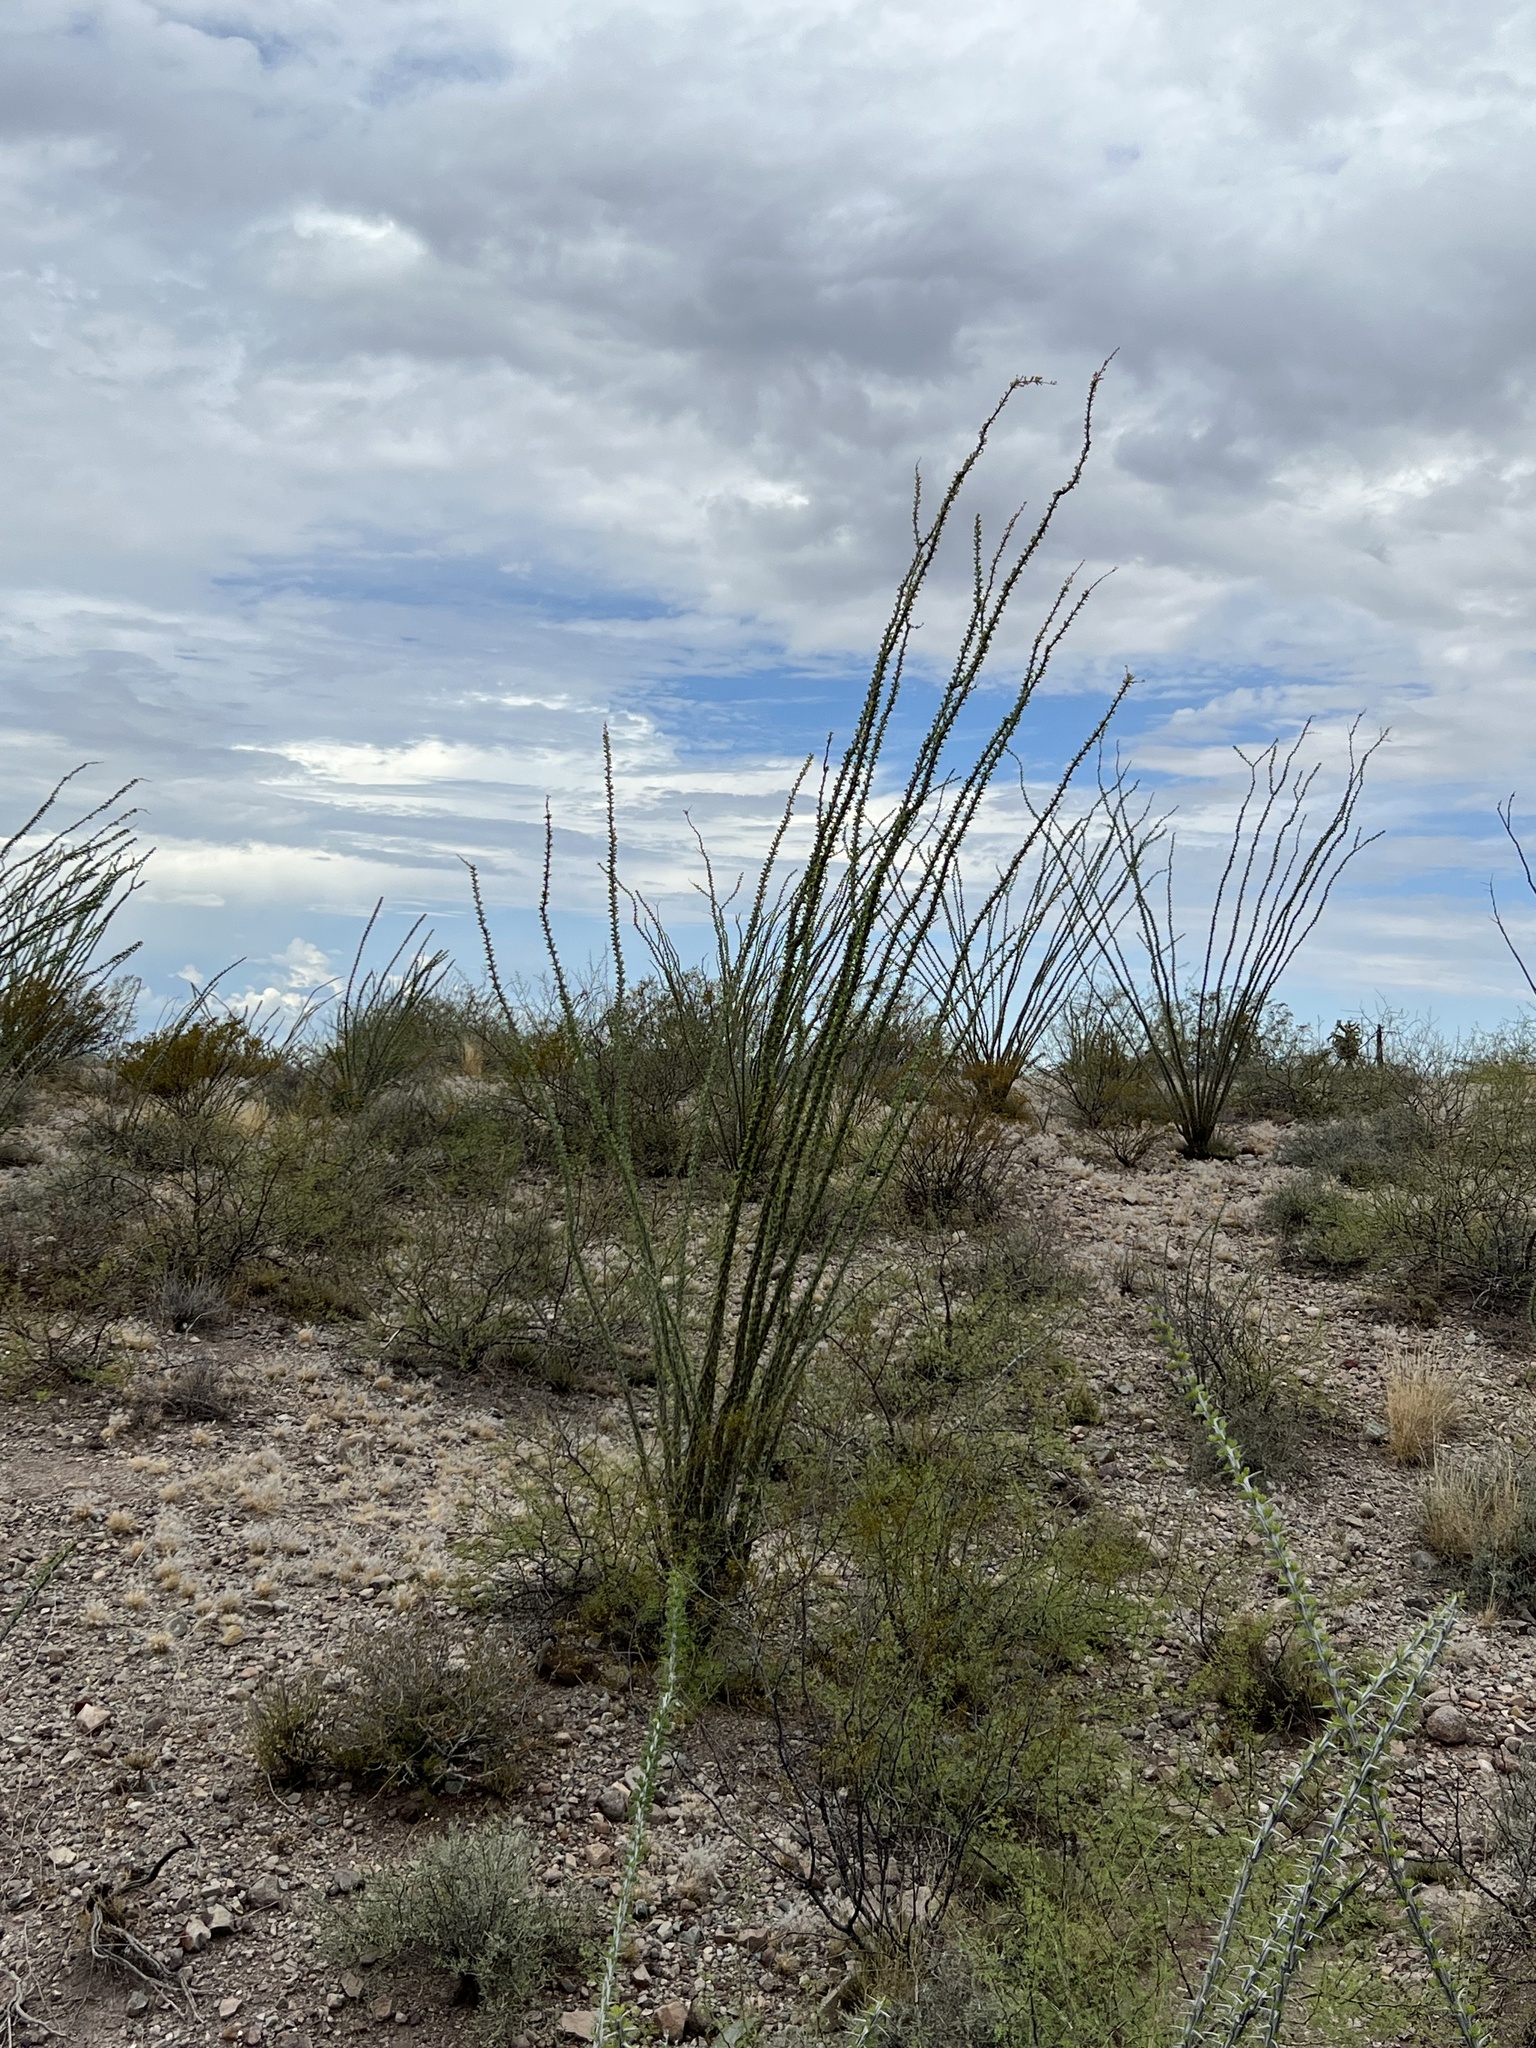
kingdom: Plantae
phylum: Tracheophyta
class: Magnoliopsida
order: Ericales
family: Fouquieriaceae
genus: Fouquieria
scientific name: Fouquieria splendens
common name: Vine-cactus
